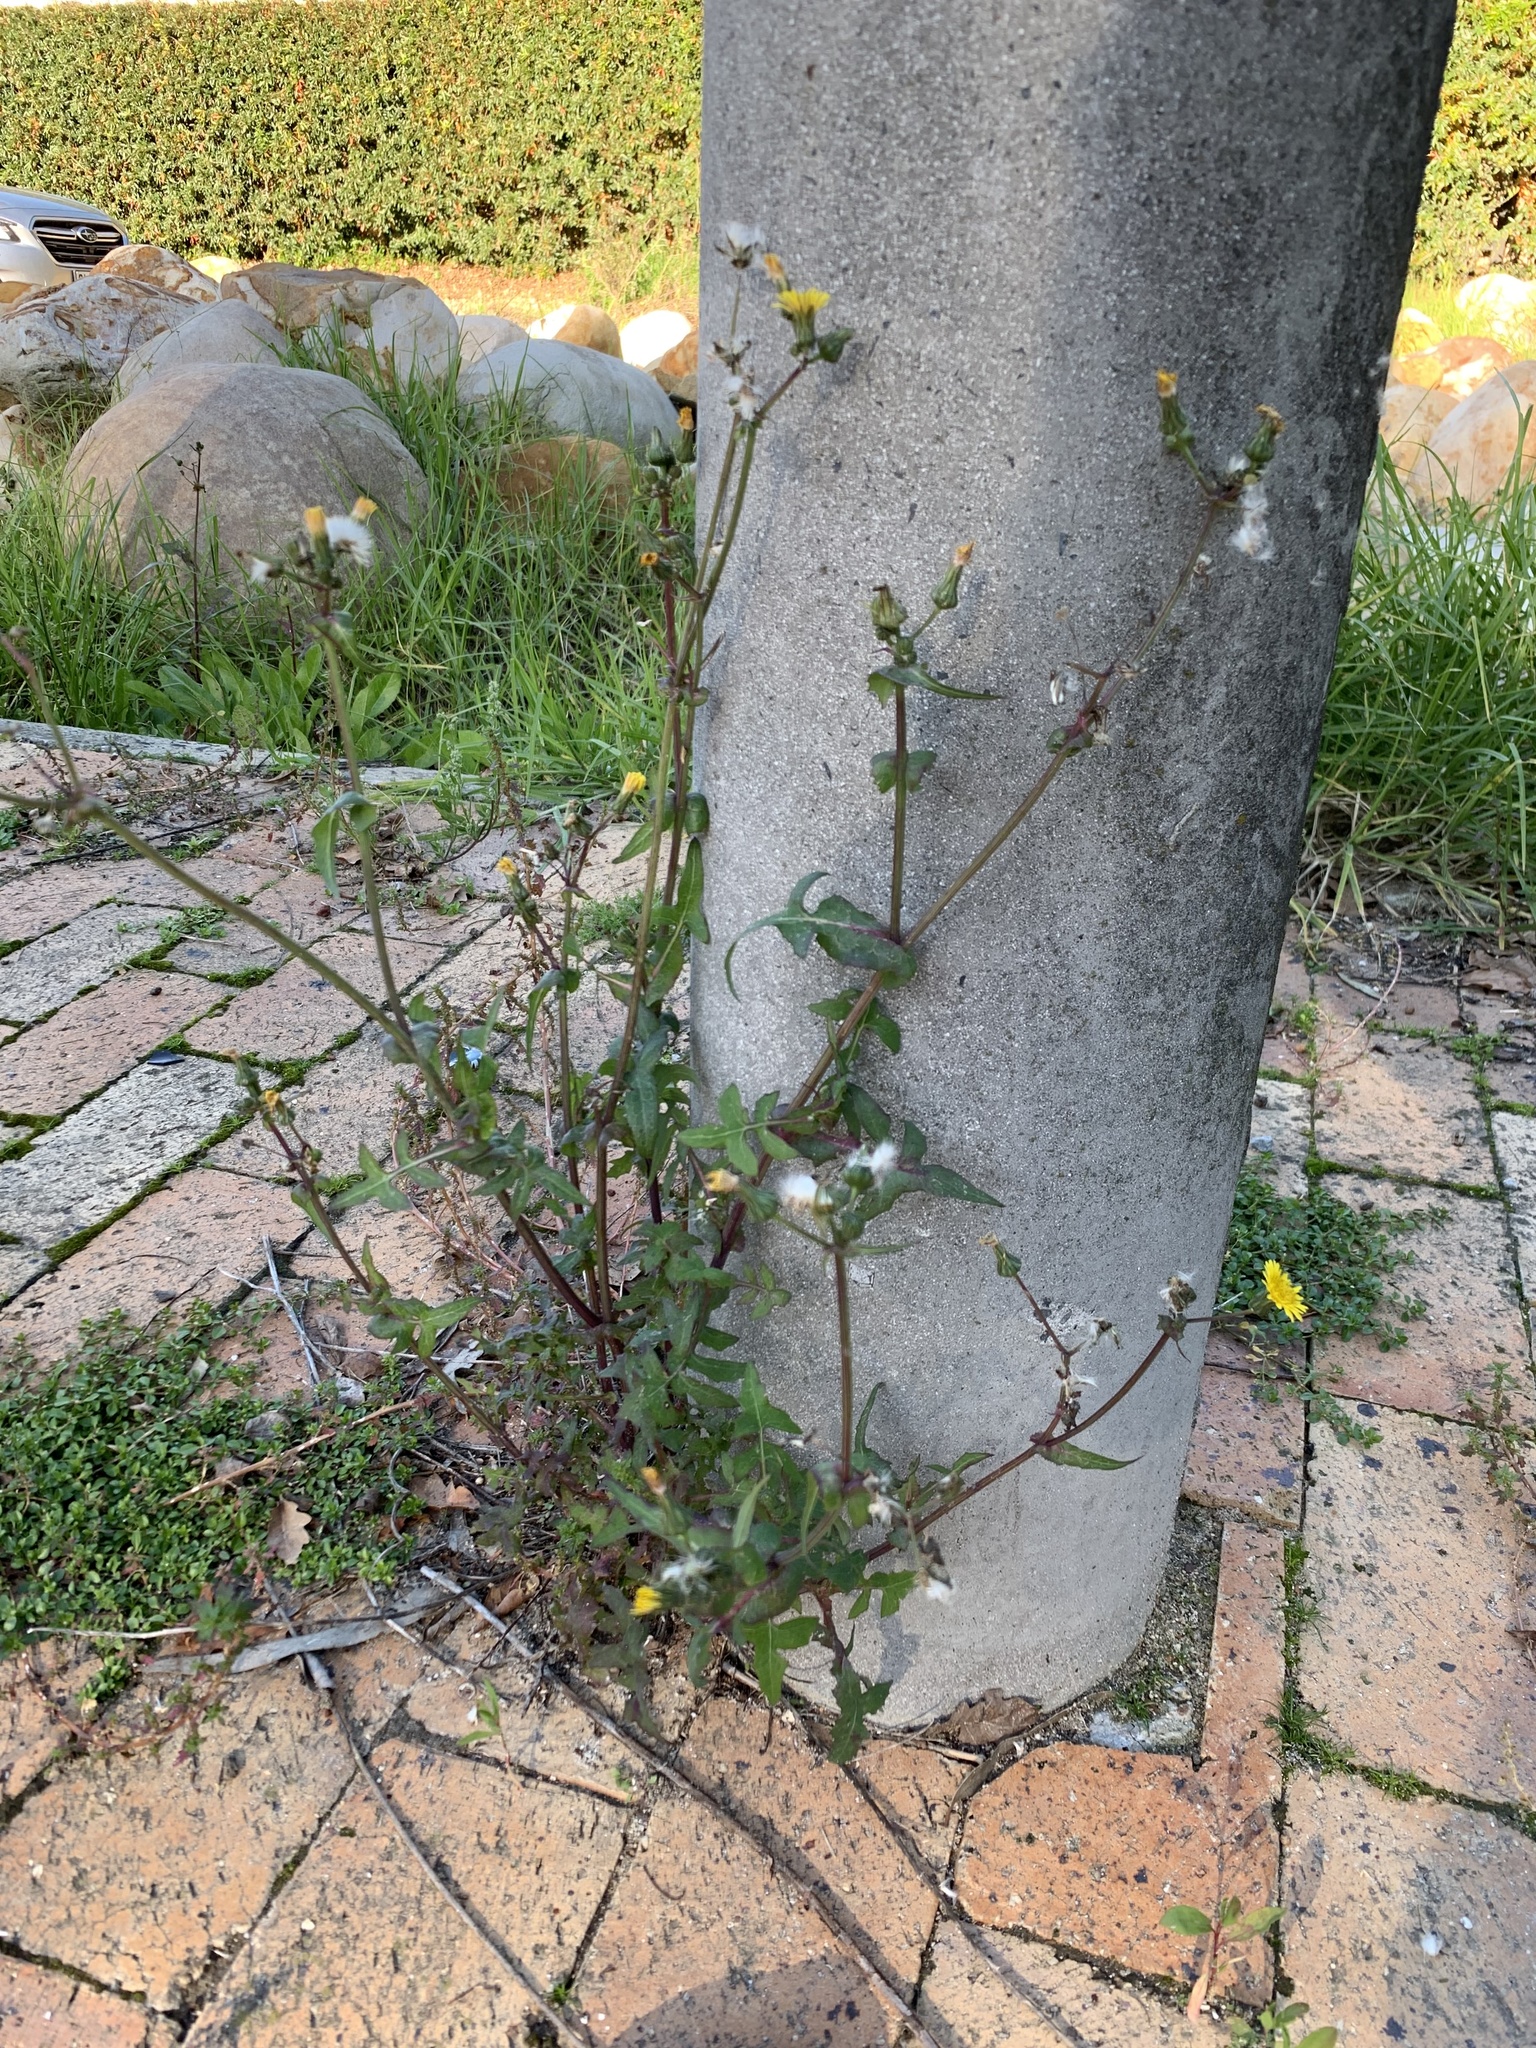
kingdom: Plantae
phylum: Tracheophyta
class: Magnoliopsida
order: Asterales
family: Asteraceae
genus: Sonchus
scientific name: Sonchus oleraceus
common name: Common sowthistle
